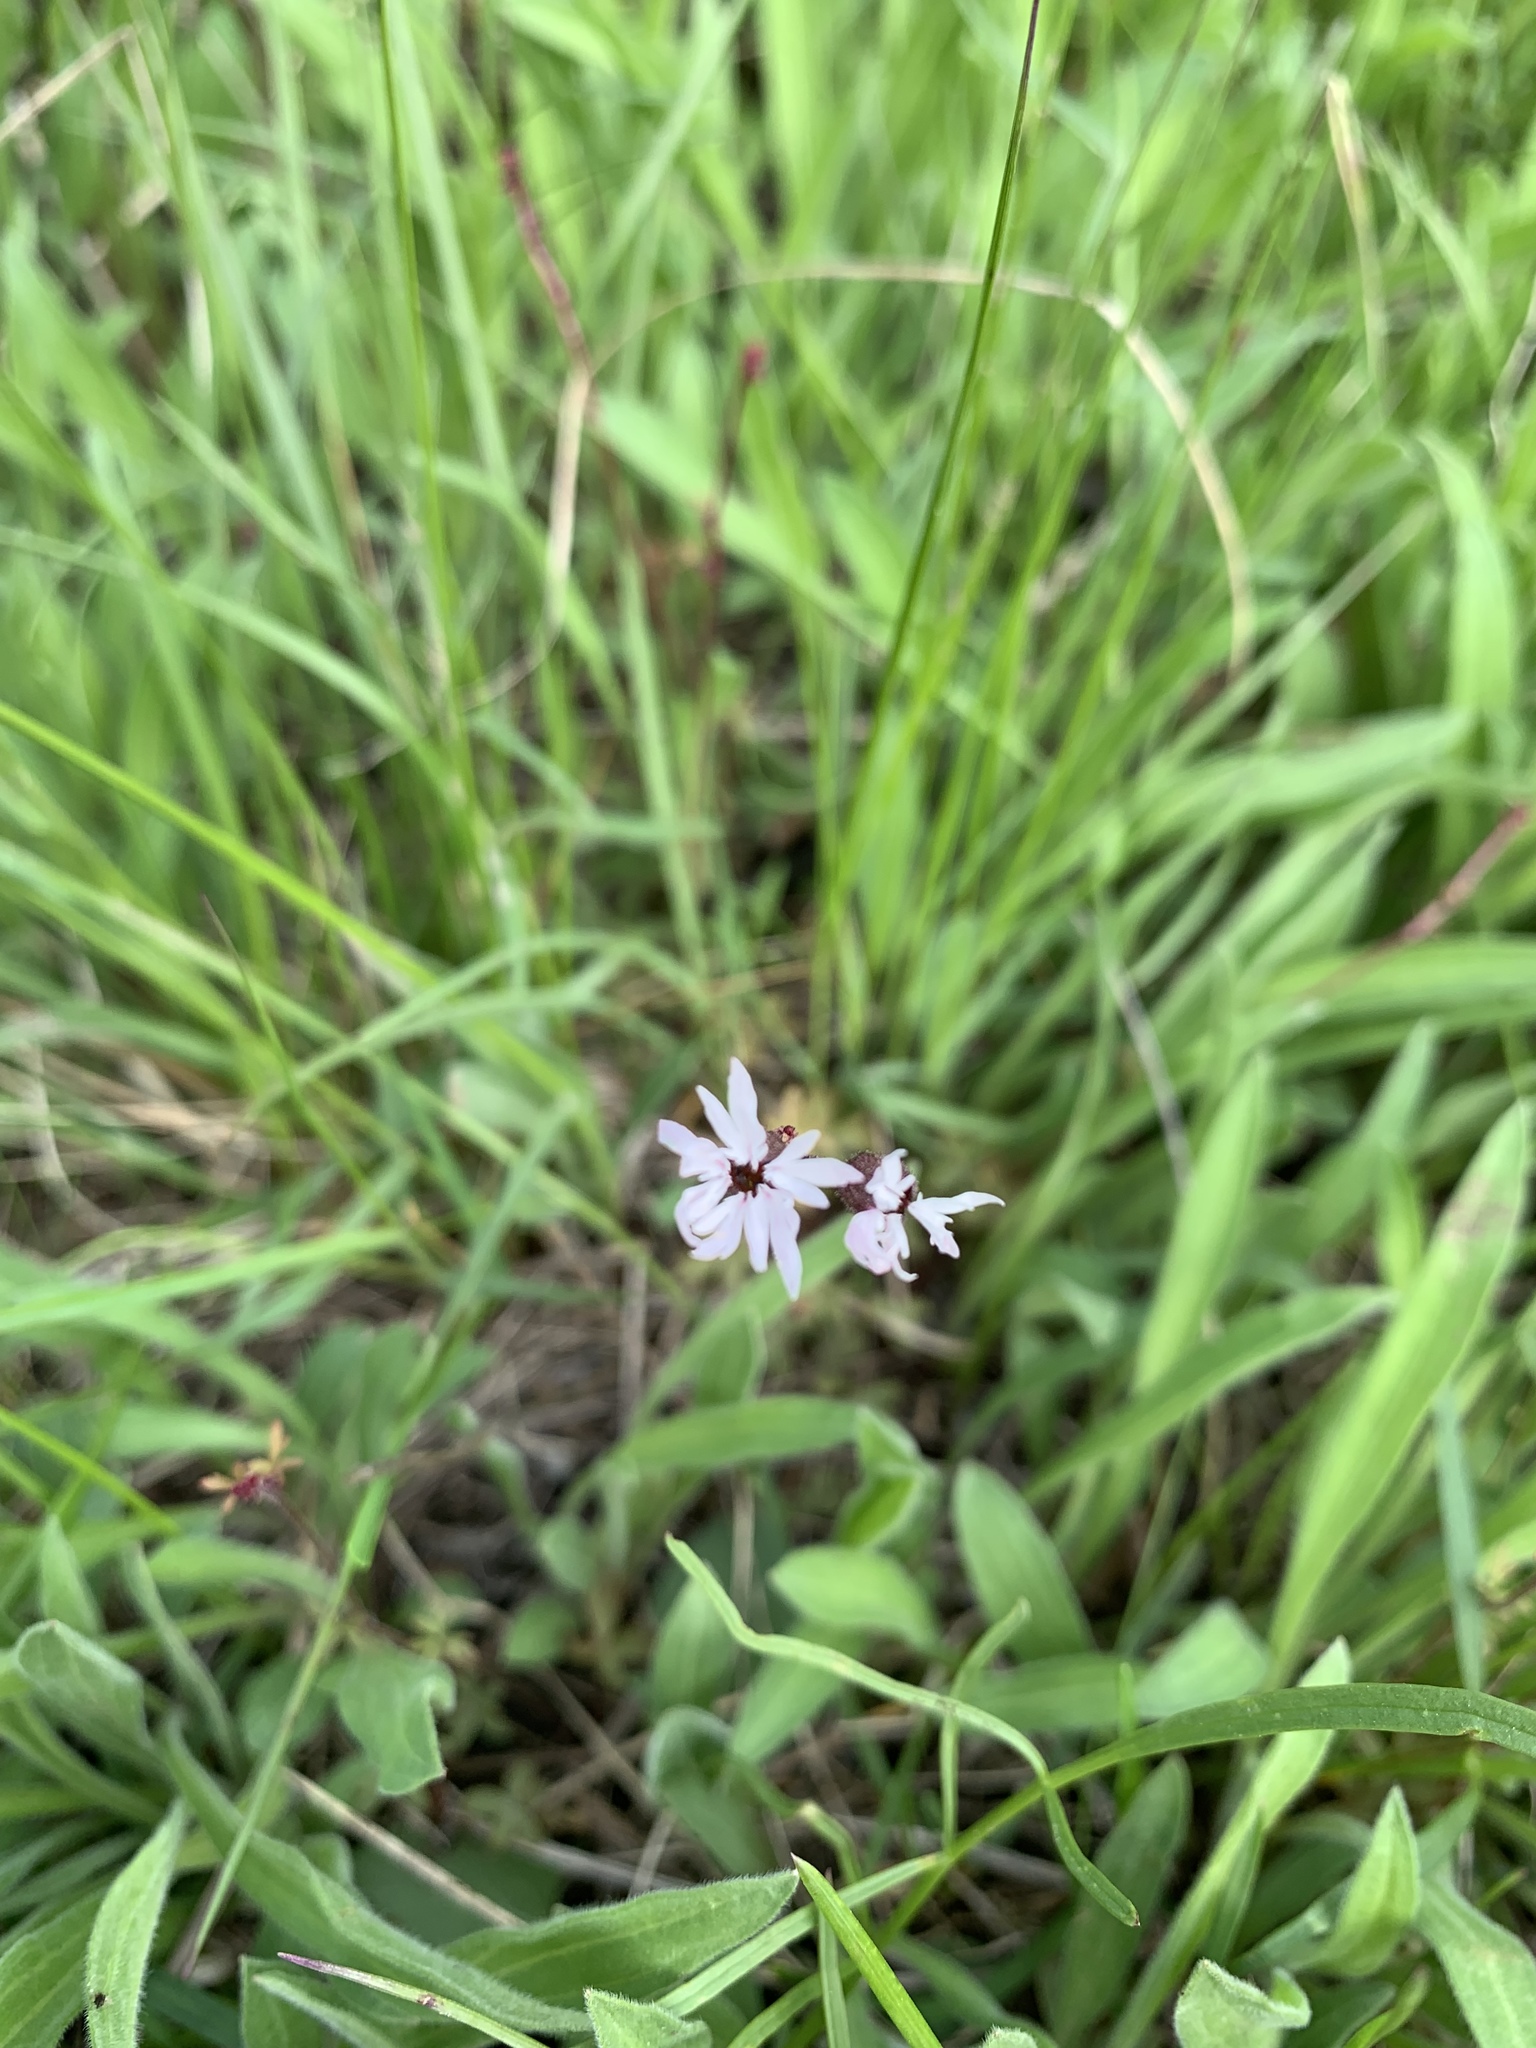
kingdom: Plantae
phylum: Tracheophyta
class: Magnoliopsida
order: Saxifragales
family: Saxifragaceae
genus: Lithophragma
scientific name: Lithophragma glabrum
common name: Bulbous prairie-star
